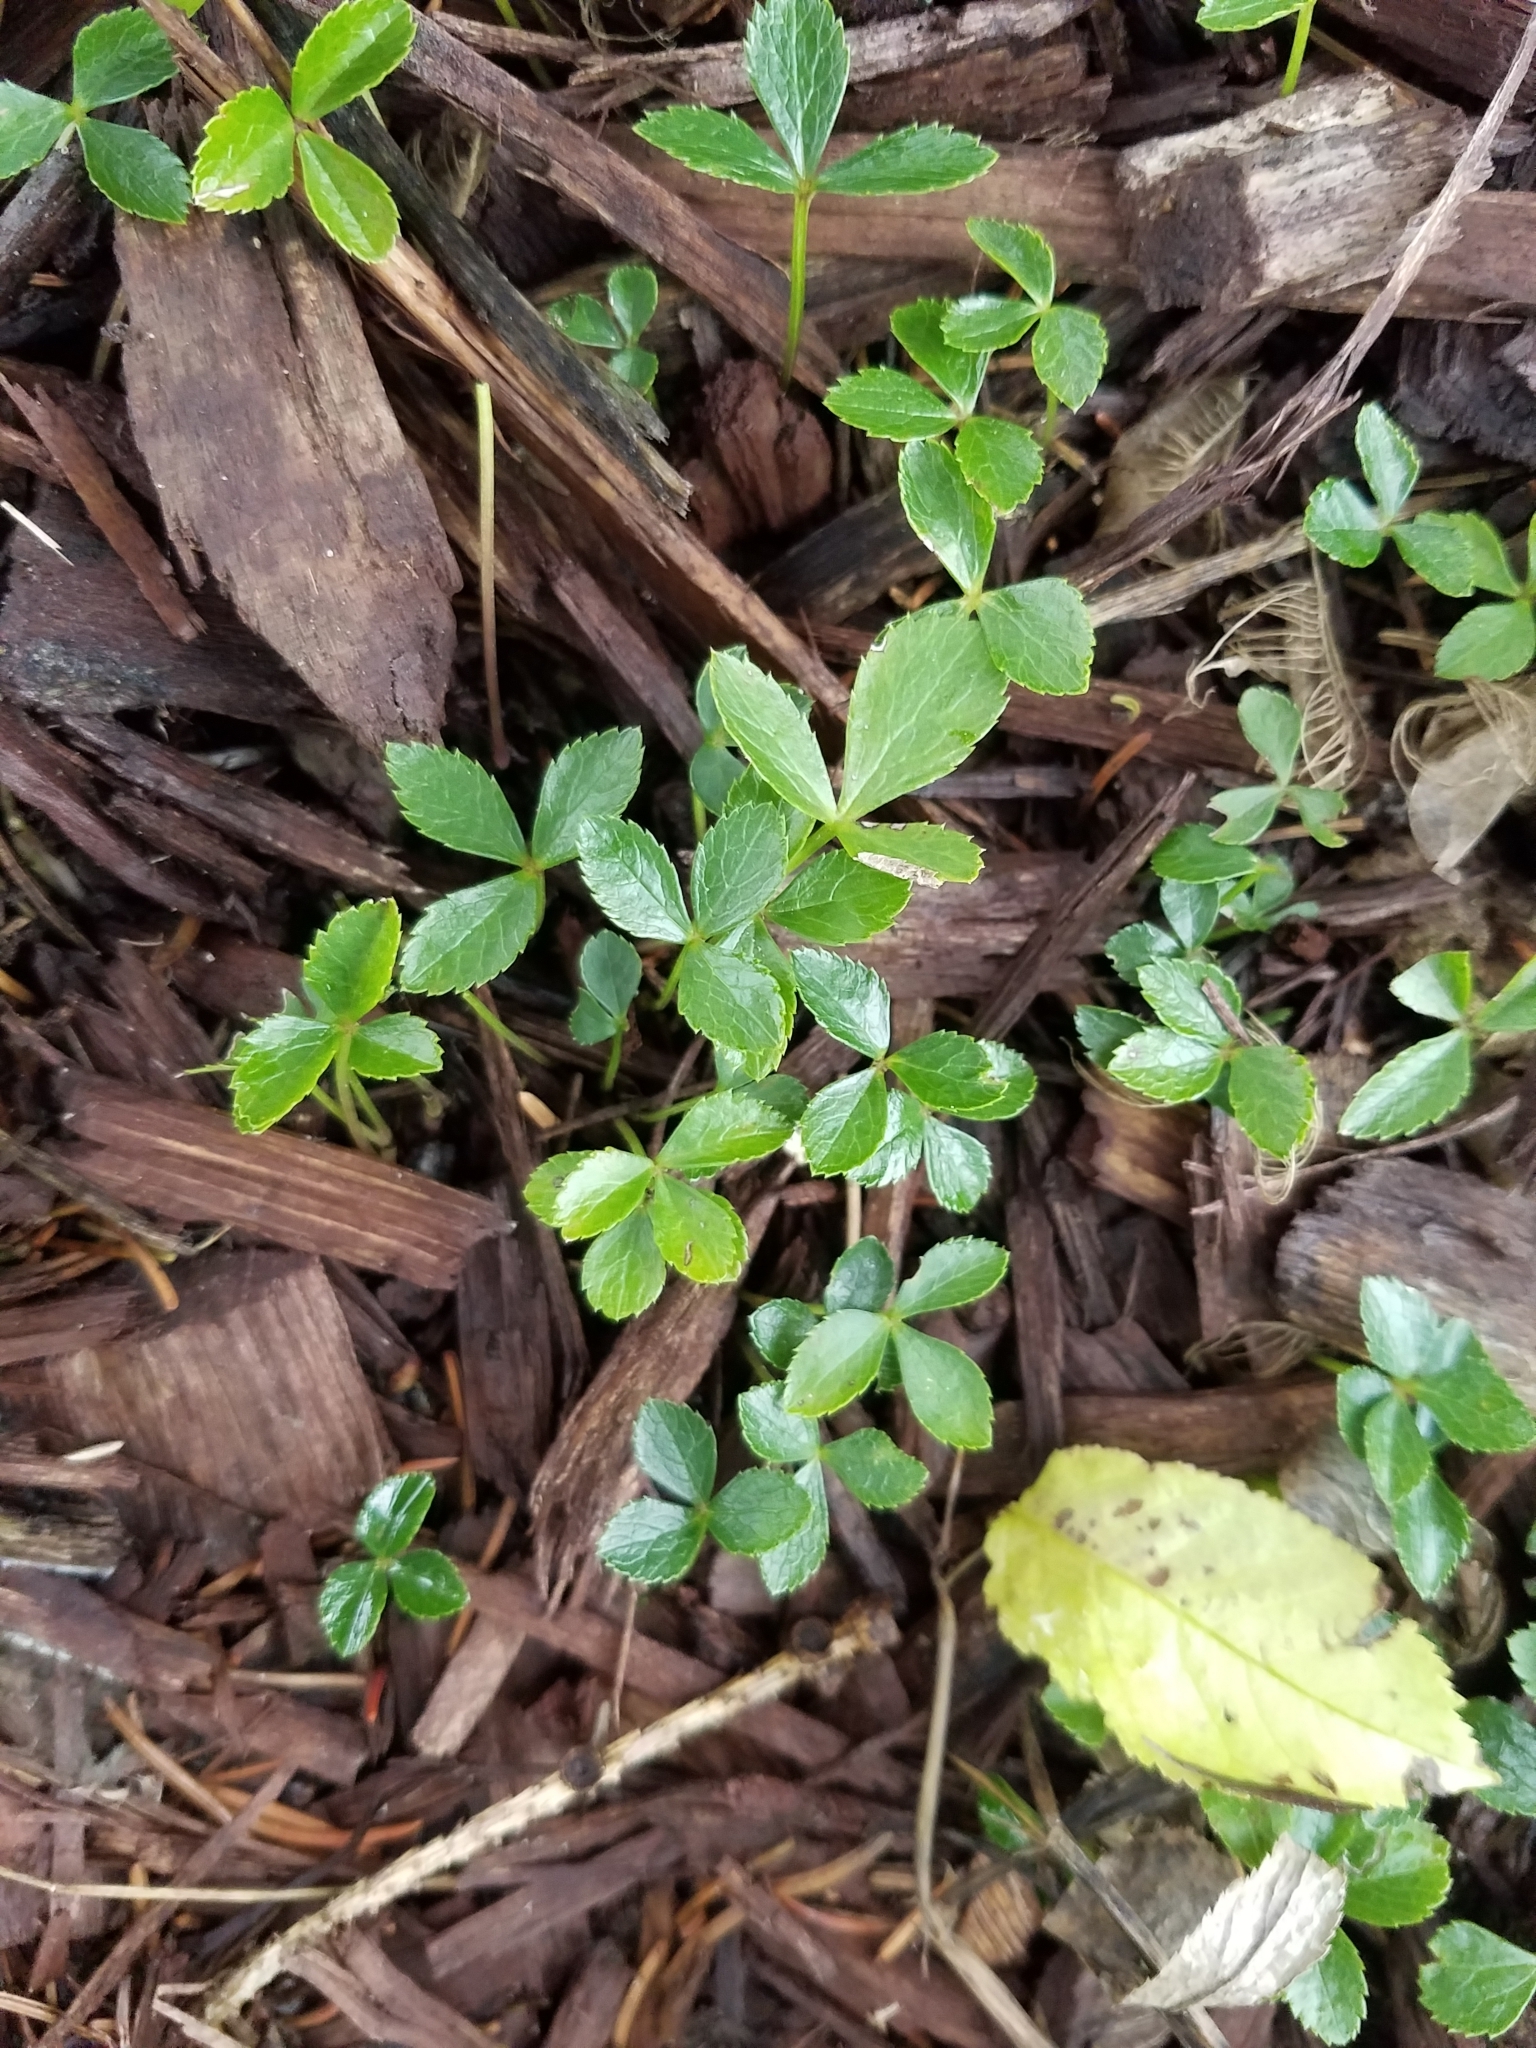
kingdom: Plantae
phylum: Tracheophyta
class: Magnoliopsida
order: Ranunculales
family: Ranunculaceae
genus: Coptis
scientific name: Coptis trifolia
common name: Canker-root
